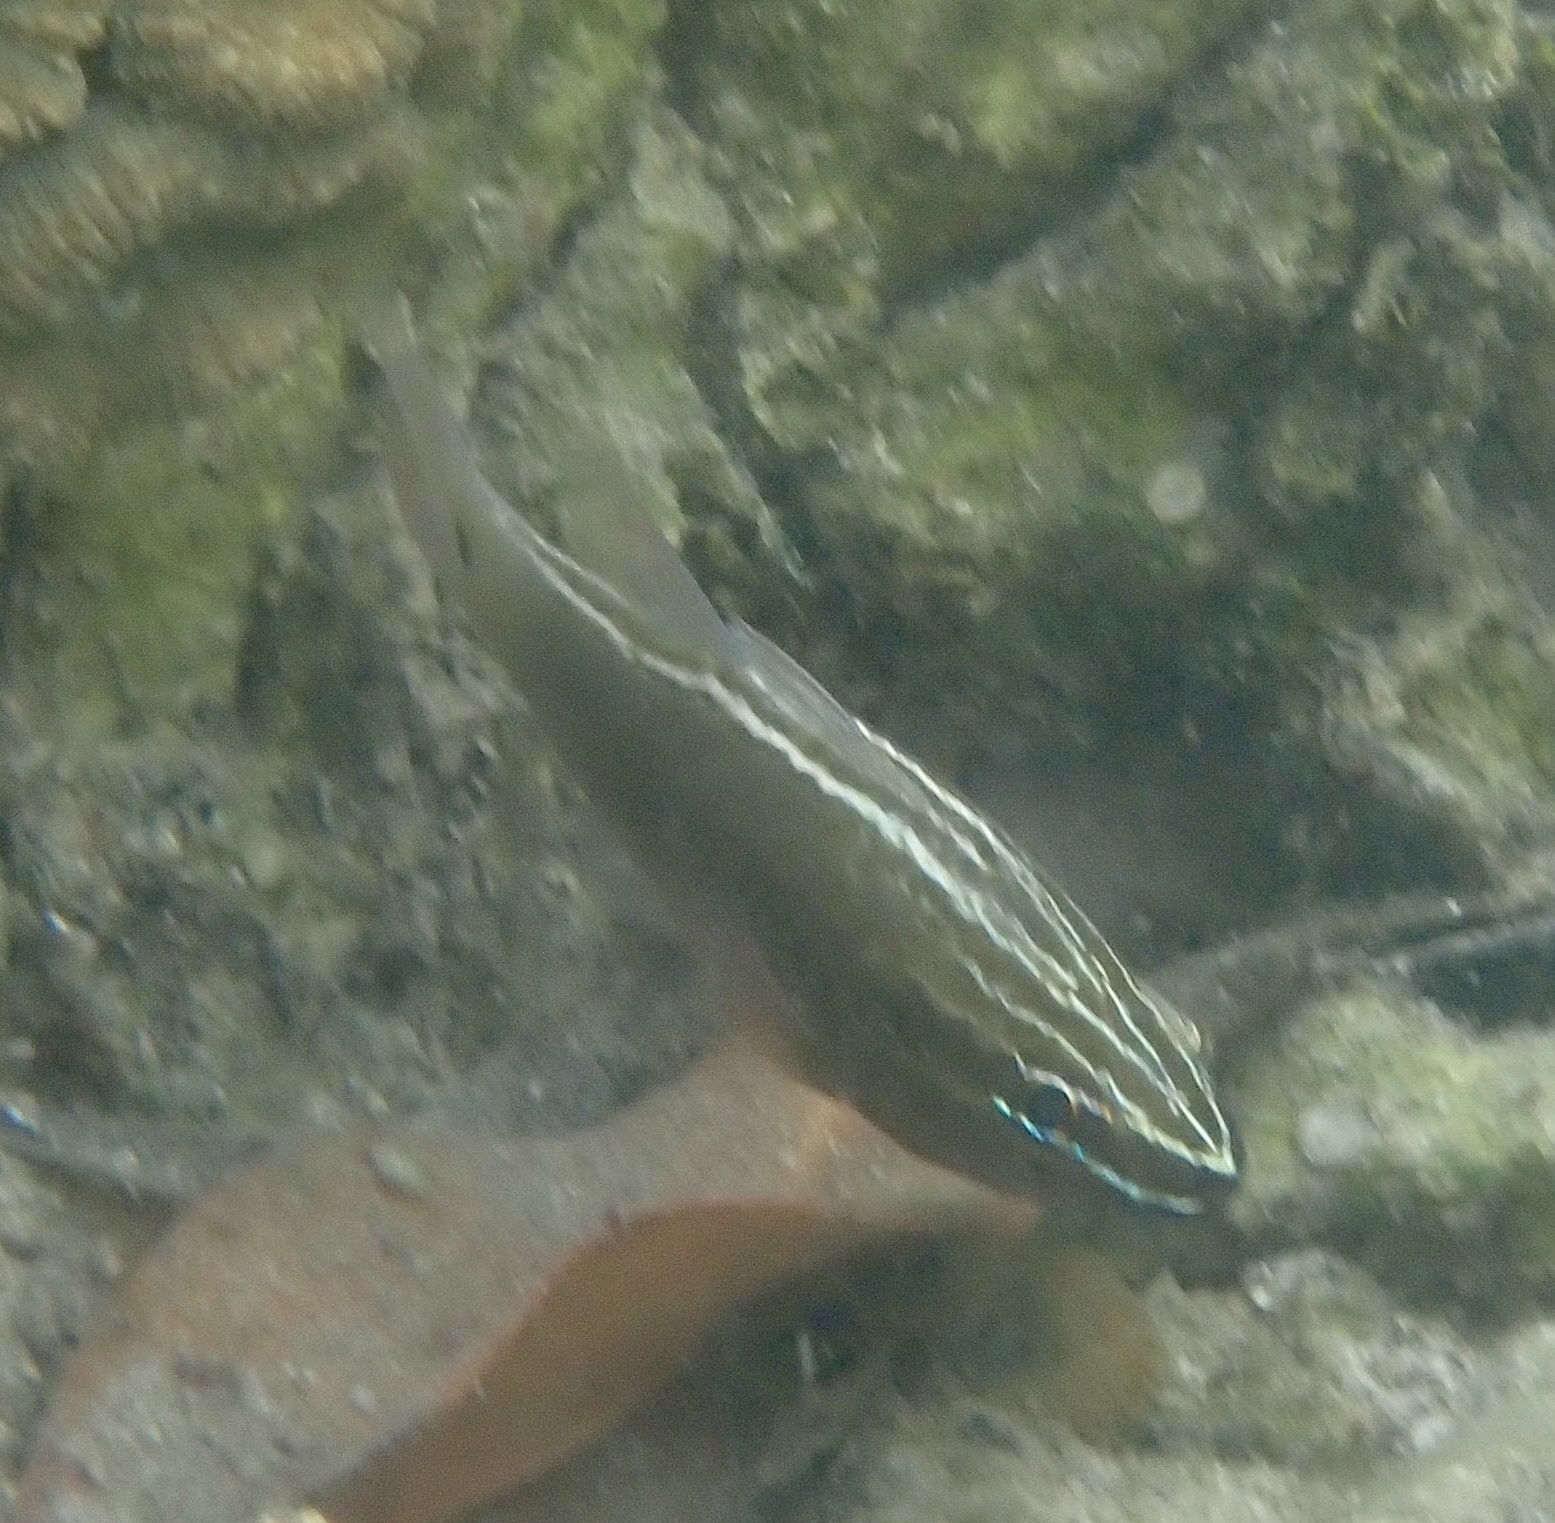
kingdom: Animalia
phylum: Chordata
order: Perciformes
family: Apogonidae
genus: Ostorhinchus
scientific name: Ostorhinchus hartzfeldii
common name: Hartzfeld's cardinalfish
